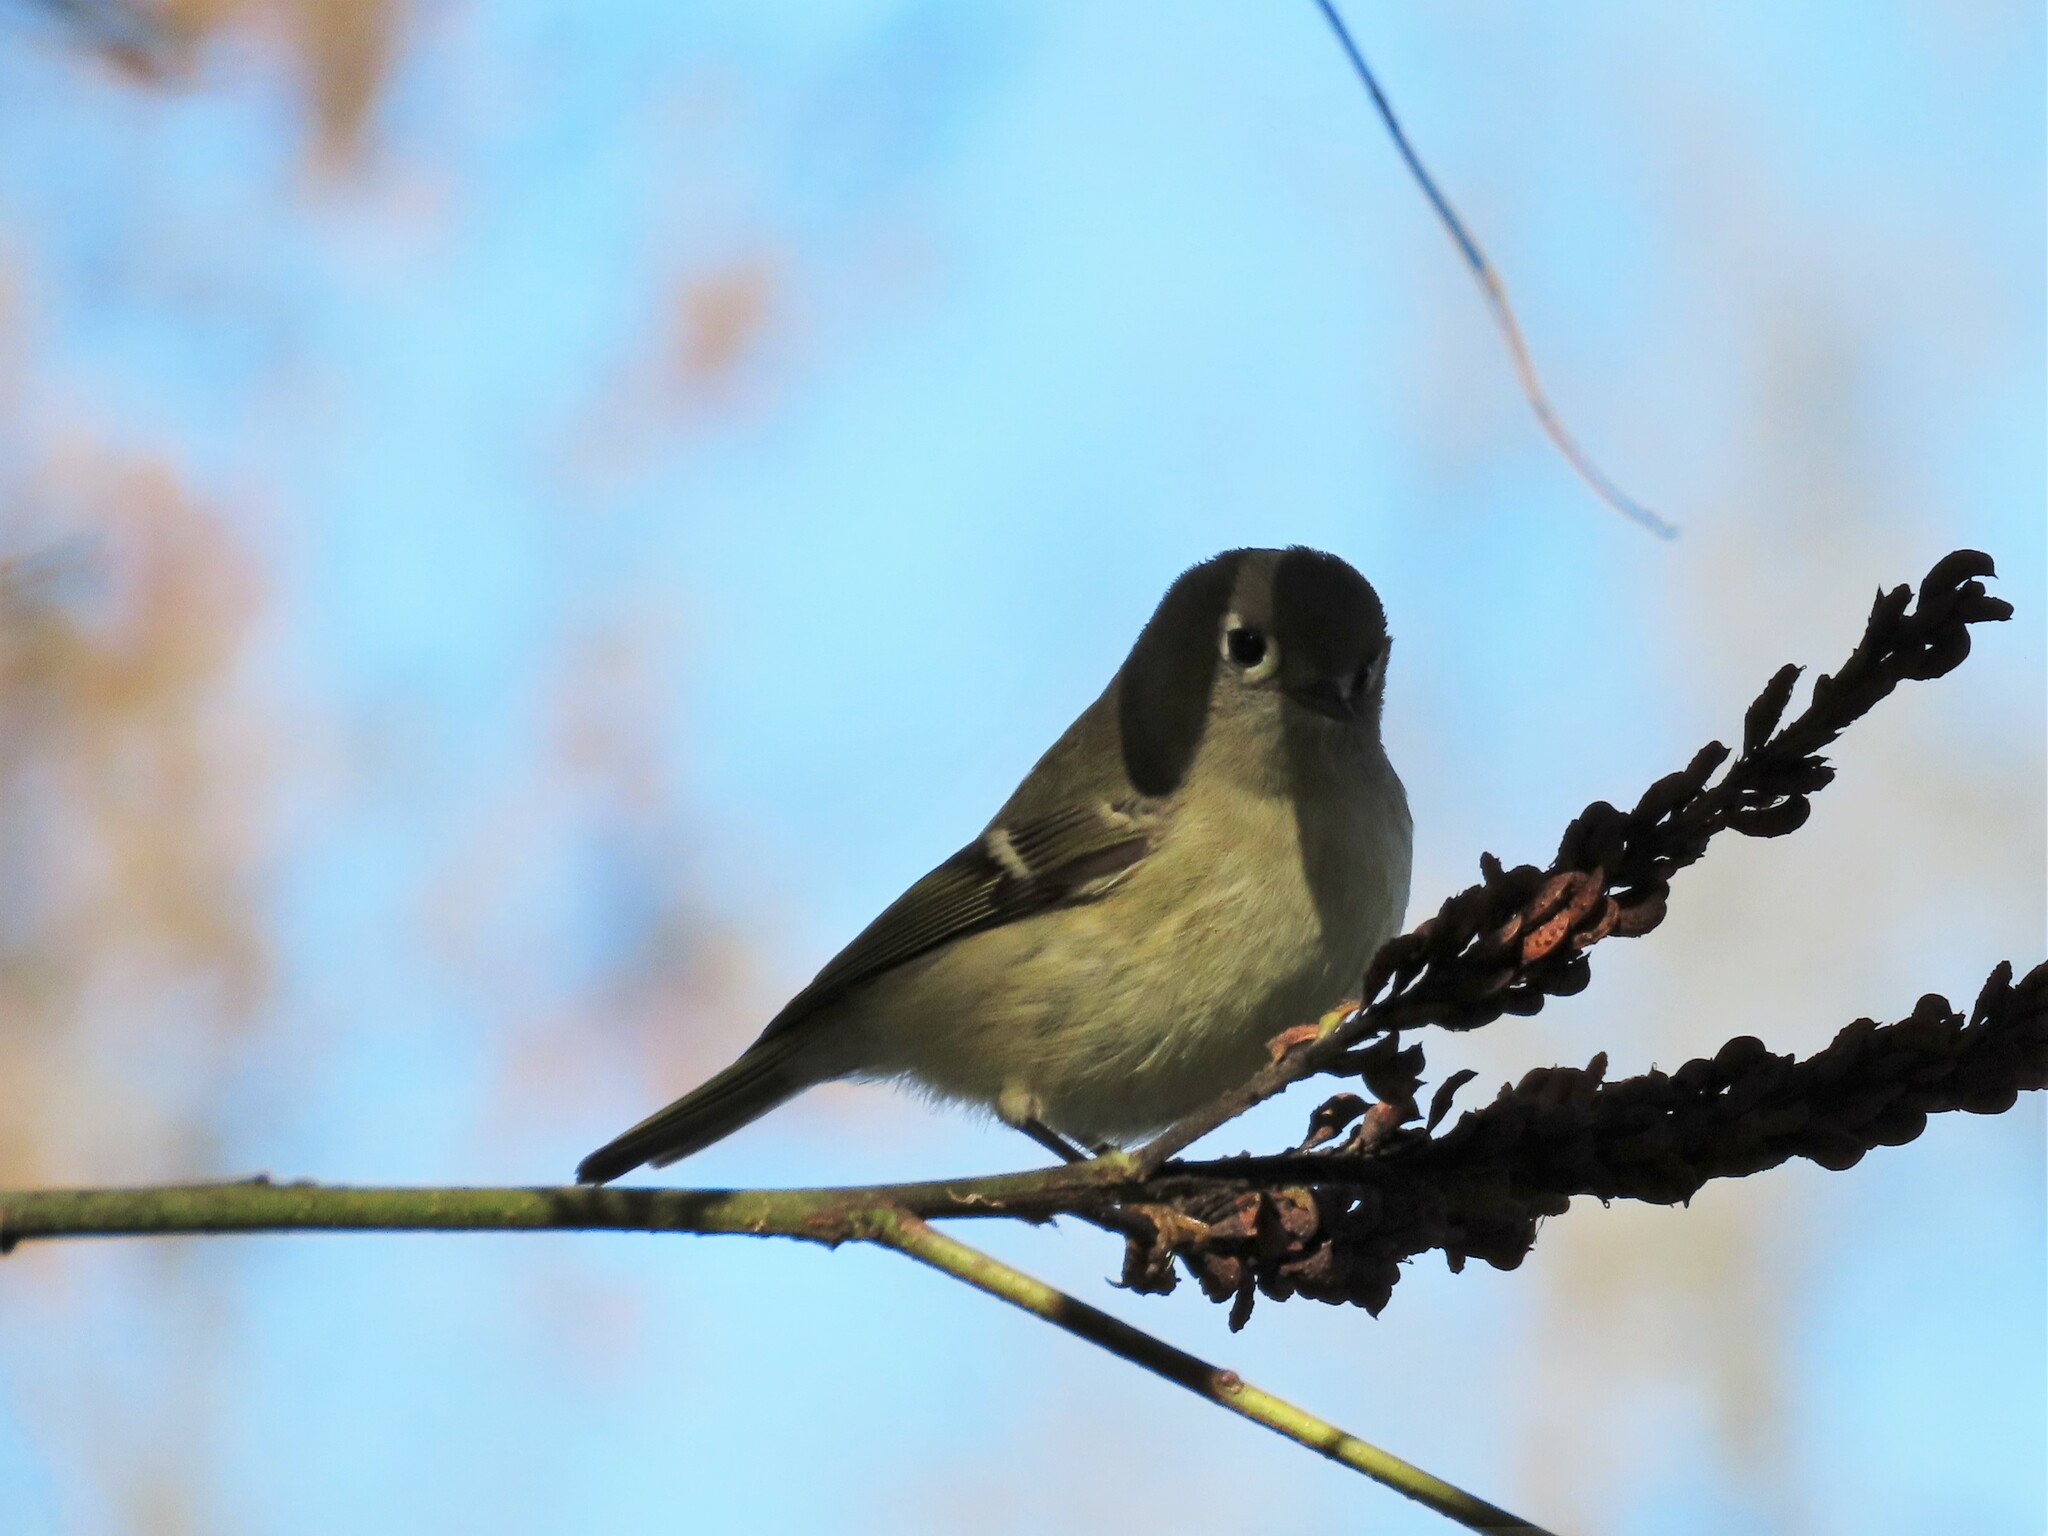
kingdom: Animalia
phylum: Chordata
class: Aves
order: Passeriformes
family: Regulidae
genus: Regulus
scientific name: Regulus calendula
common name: Ruby-crowned kinglet
